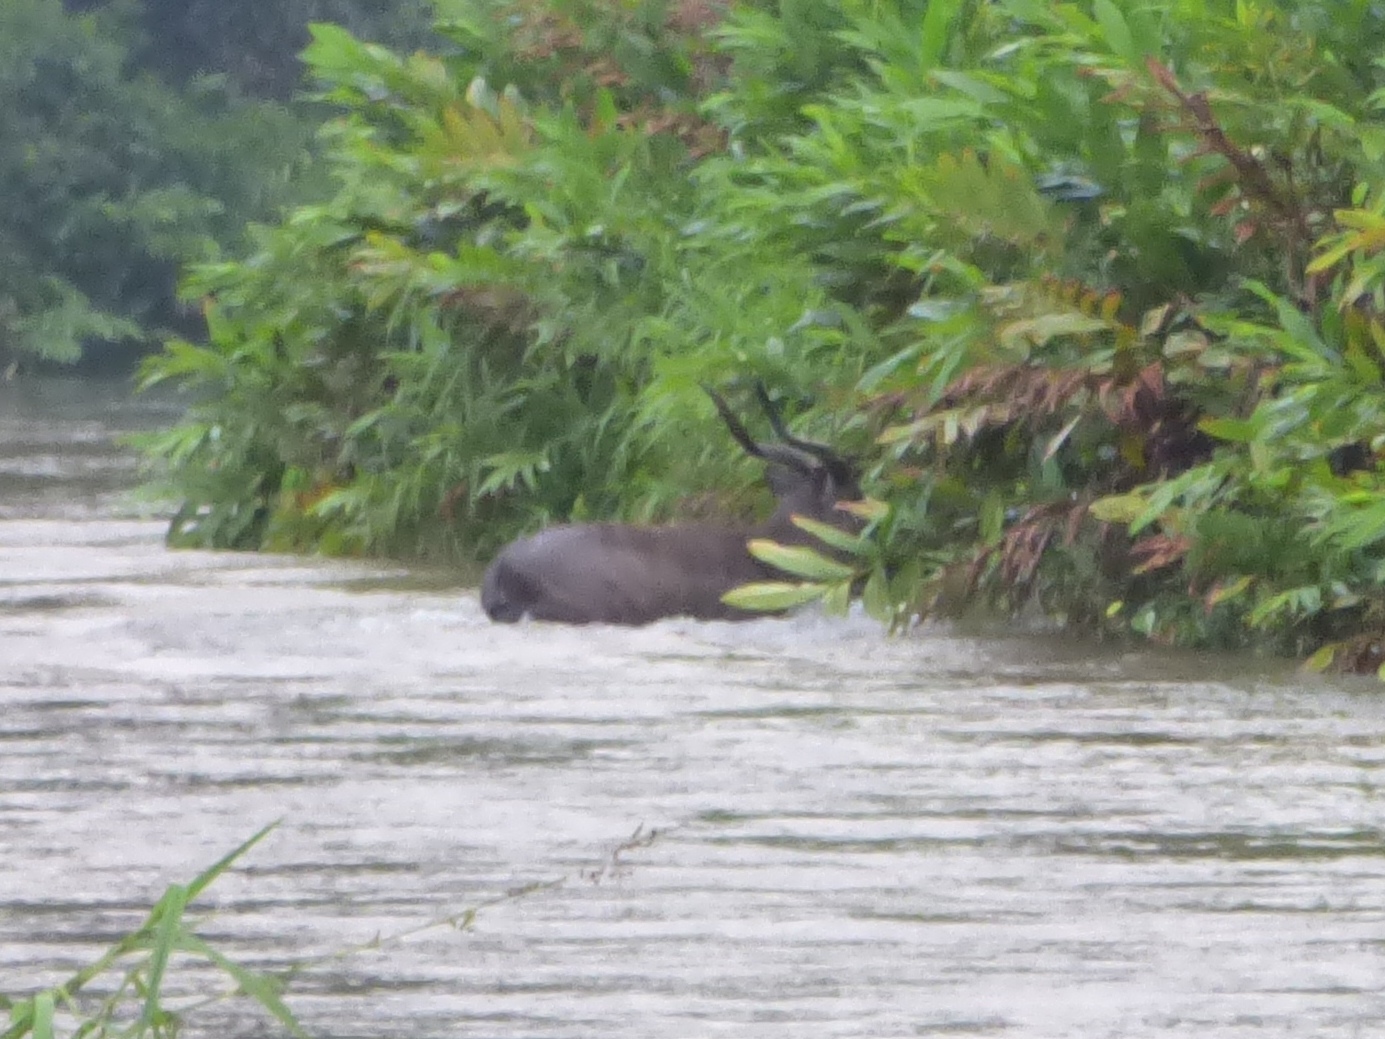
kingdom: Animalia
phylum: Chordata
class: Mammalia
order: Artiodactyla
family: Bovidae
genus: Tragelaphus
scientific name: Tragelaphus spekii
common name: Sitatunga
